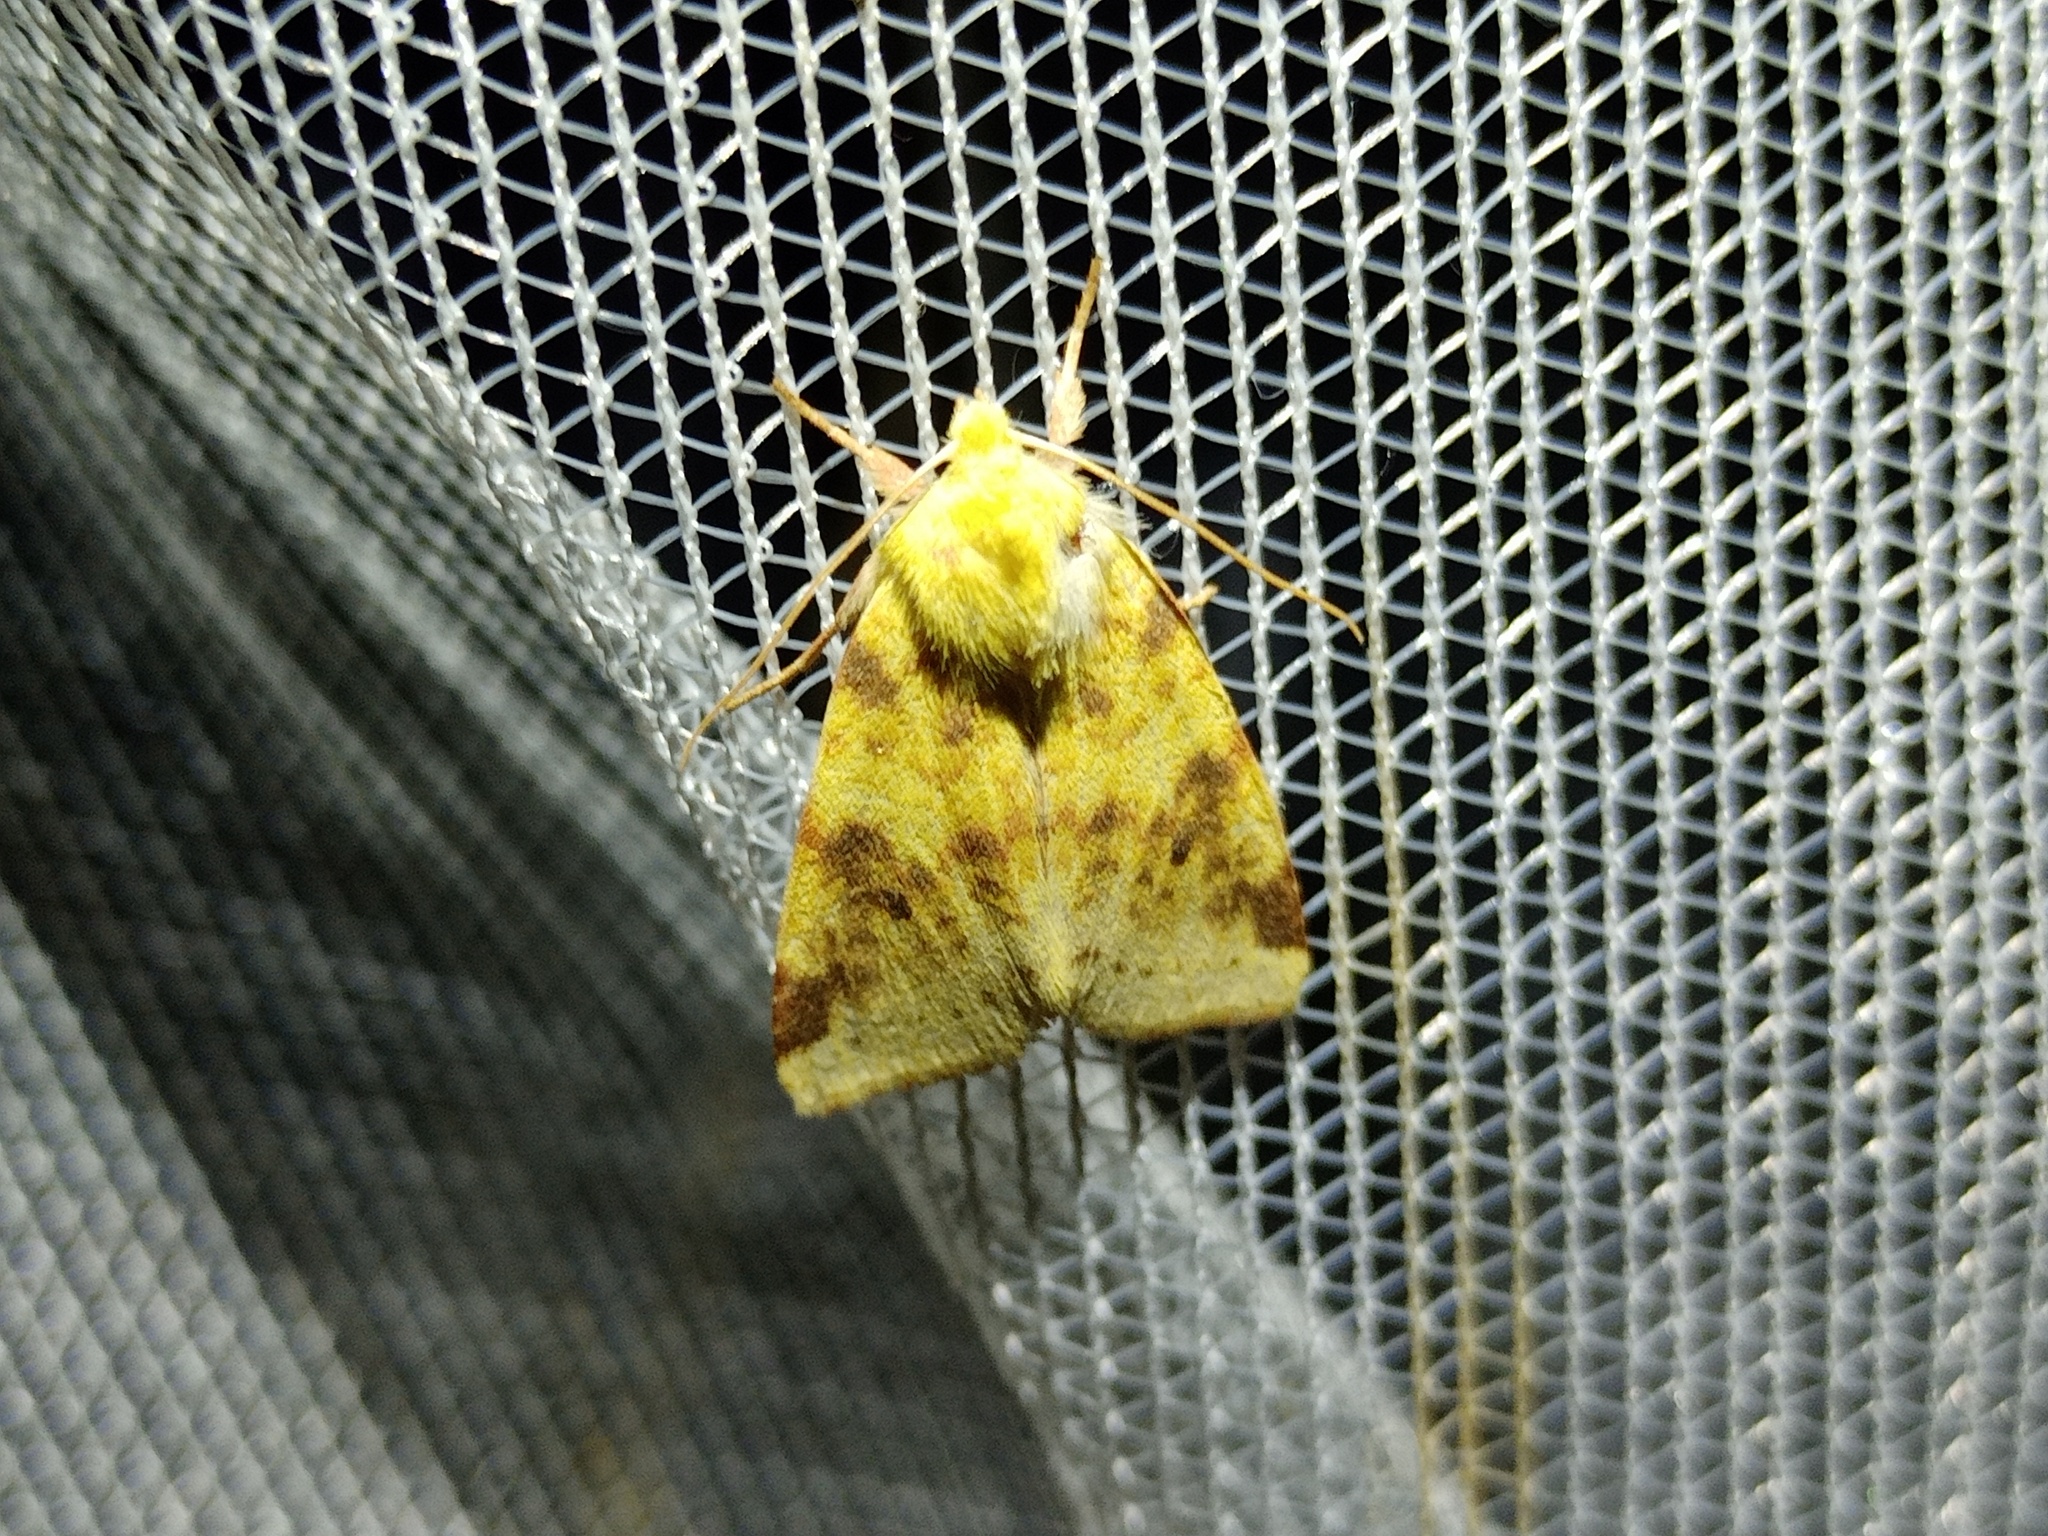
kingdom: Animalia
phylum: Arthropoda
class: Insecta
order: Lepidoptera
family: Noctuidae
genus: Xanthia
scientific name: Xanthia icteritia
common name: The sallow
